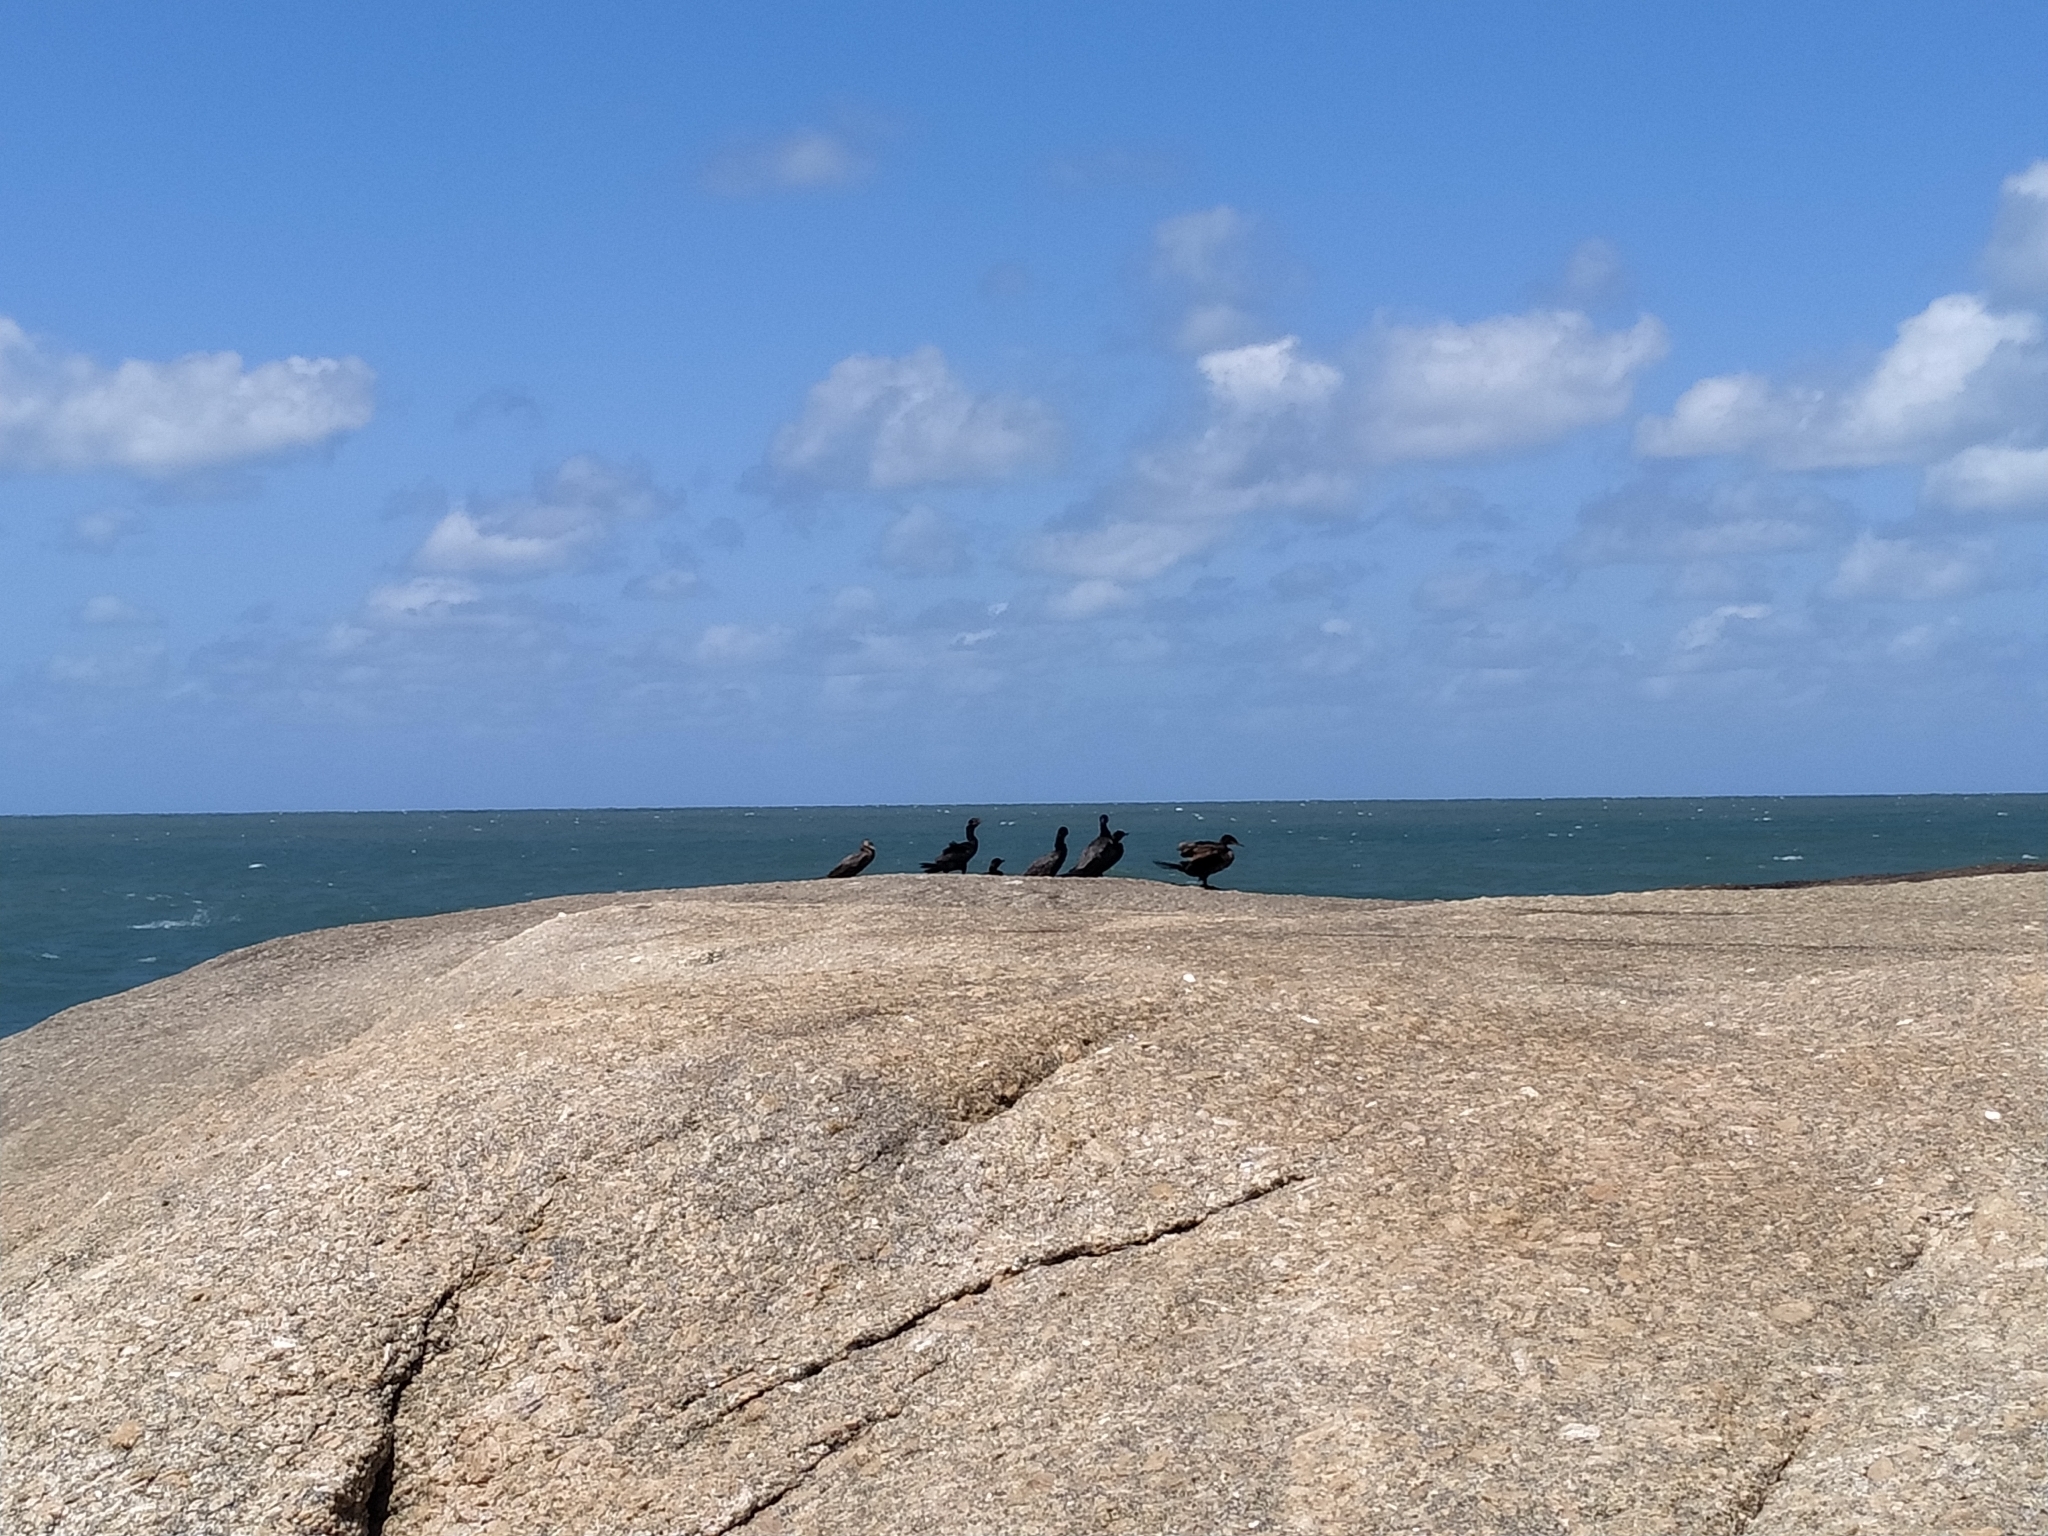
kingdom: Animalia
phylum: Chordata
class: Aves
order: Suliformes
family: Phalacrocoracidae
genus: Phalacrocorax
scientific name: Phalacrocorax brasilianus
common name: Neotropic cormorant
